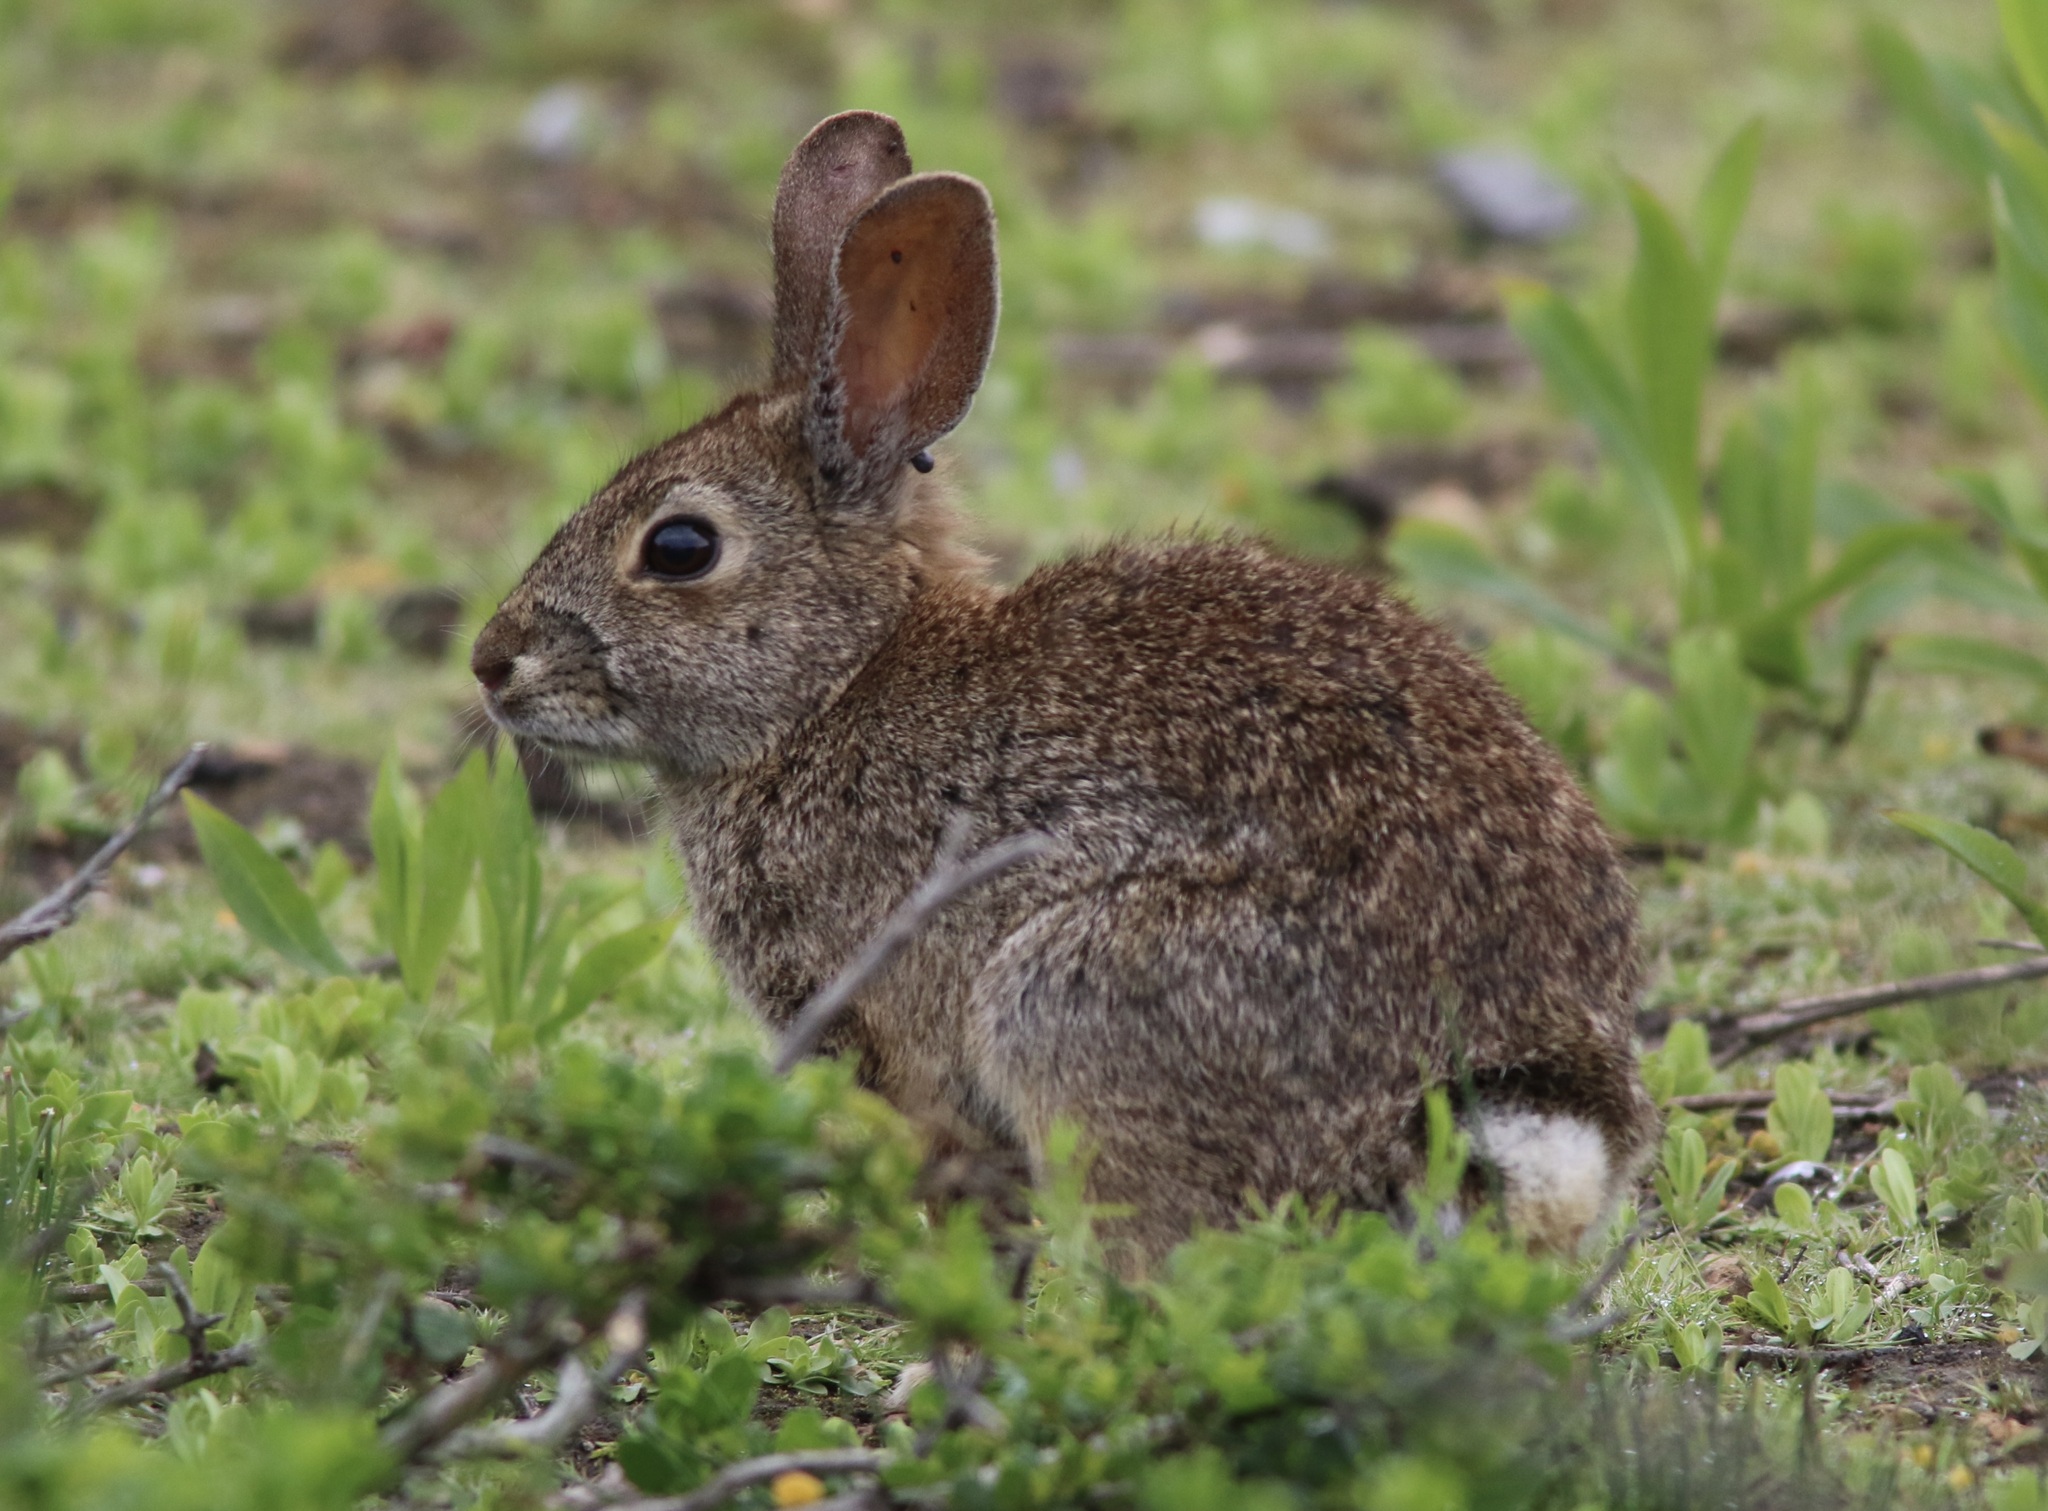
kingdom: Animalia
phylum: Chordata
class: Mammalia
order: Lagomorpha
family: Leporidae
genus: Sylvilagus
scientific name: Sylvilagus bachmani
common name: Brush rabbit
